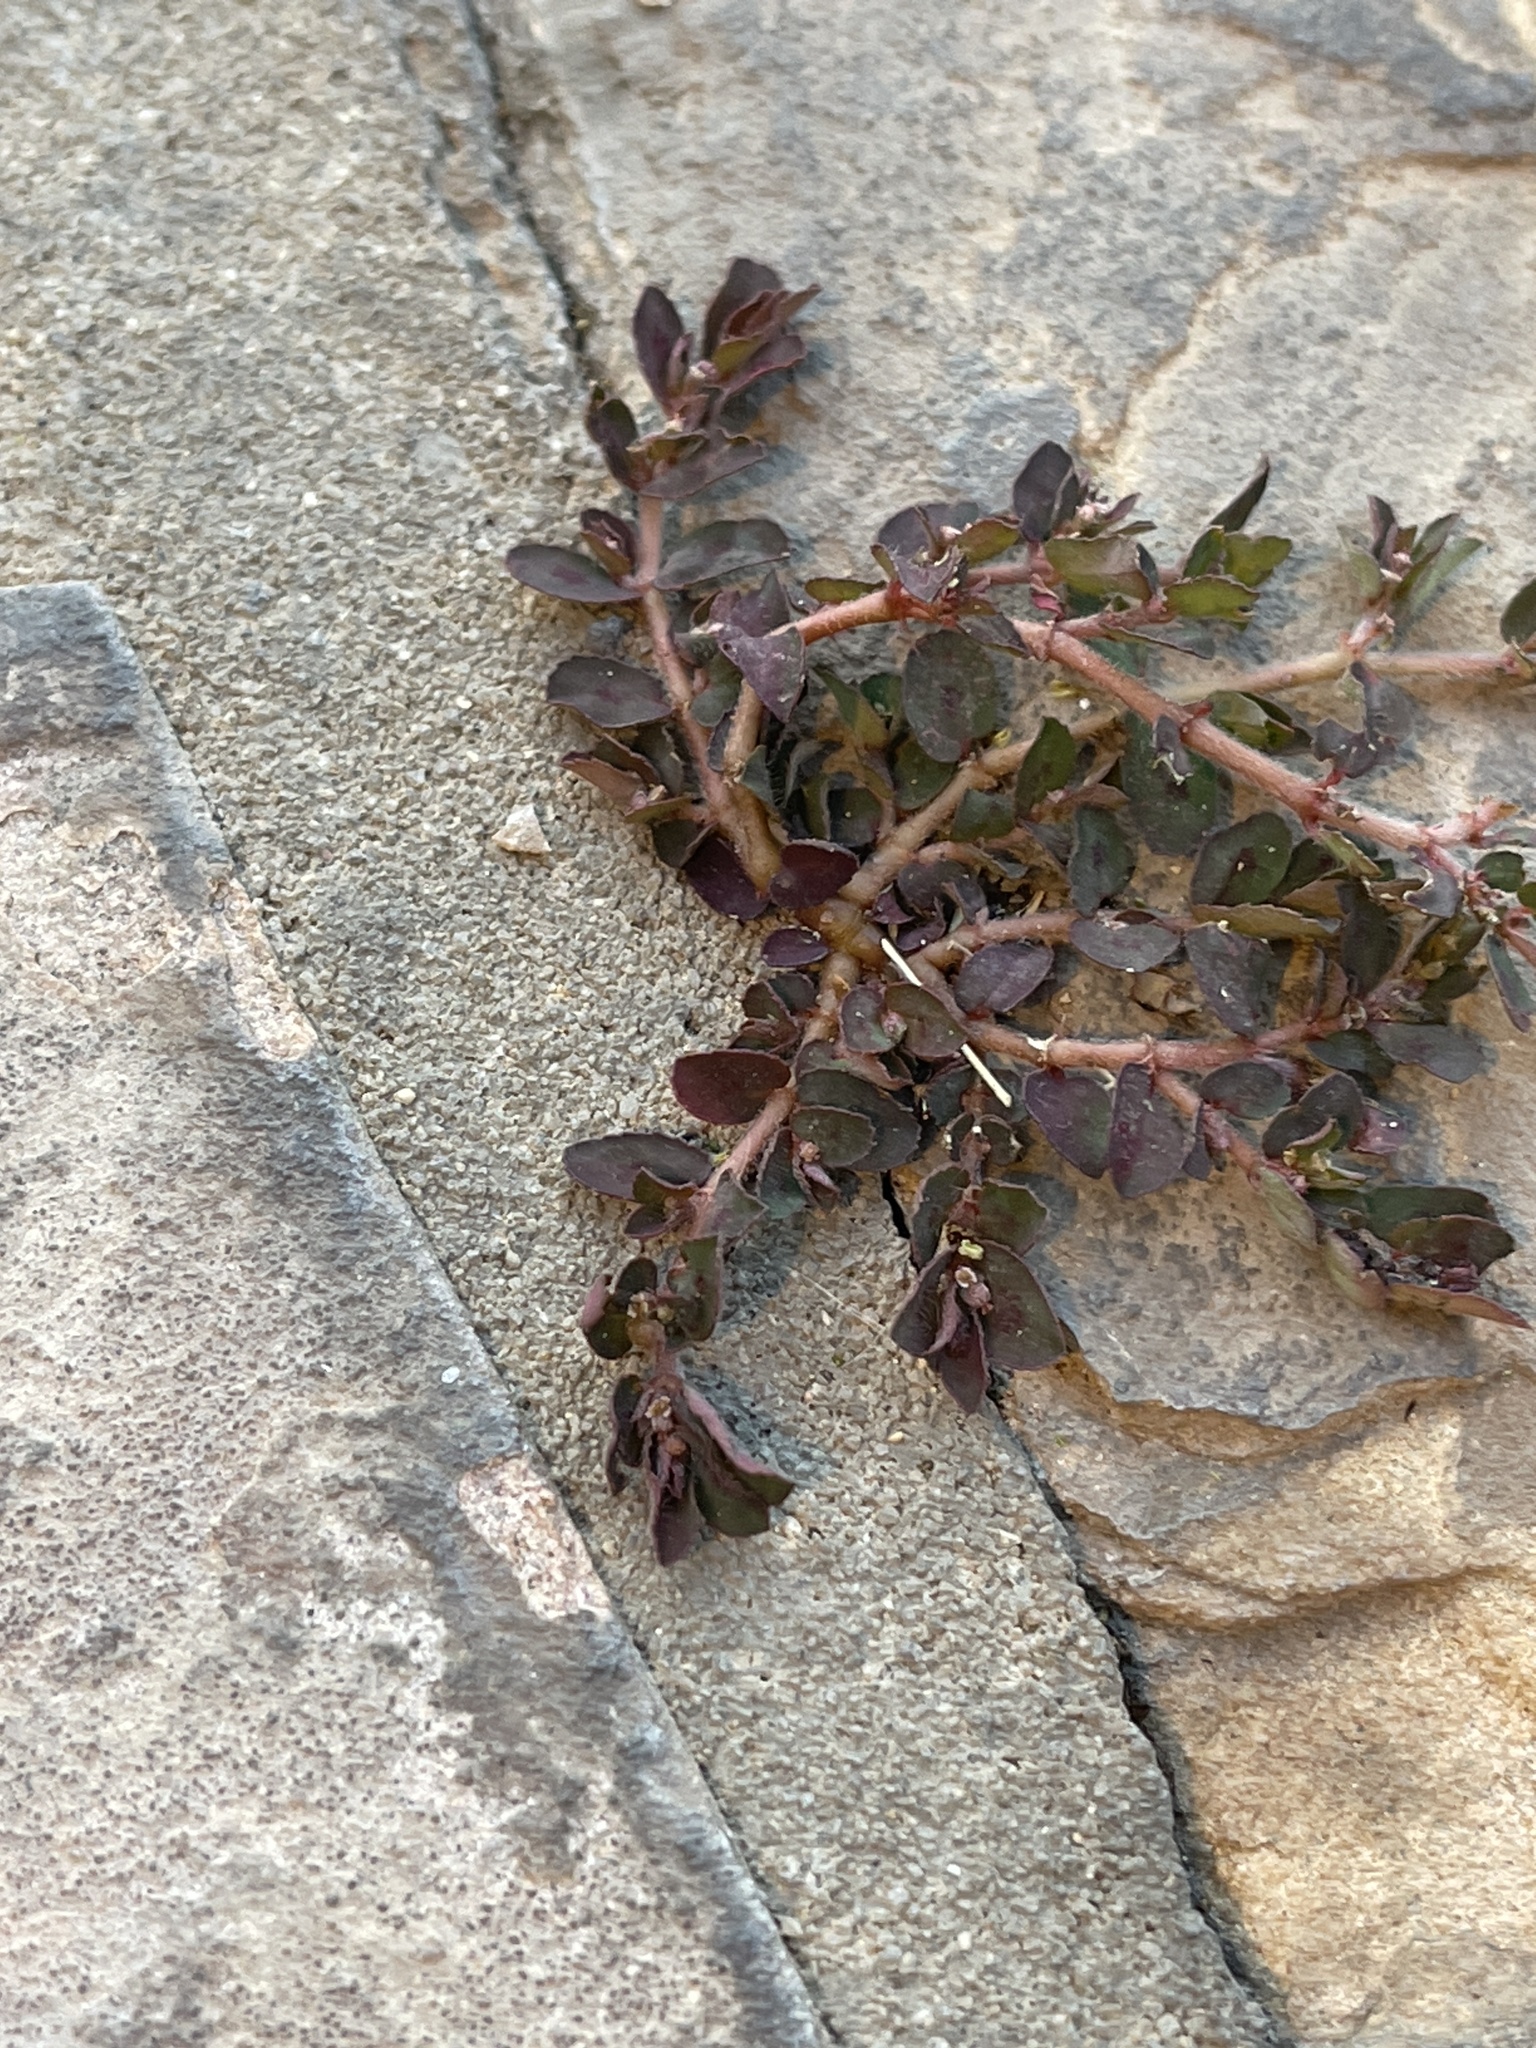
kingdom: Plantae
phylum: Tracheophyta
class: Magnoliopsida
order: Malpighiales
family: Euphorbiaceae
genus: Euphorbia
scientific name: Euphorbia maculata
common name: Spotted spurge
